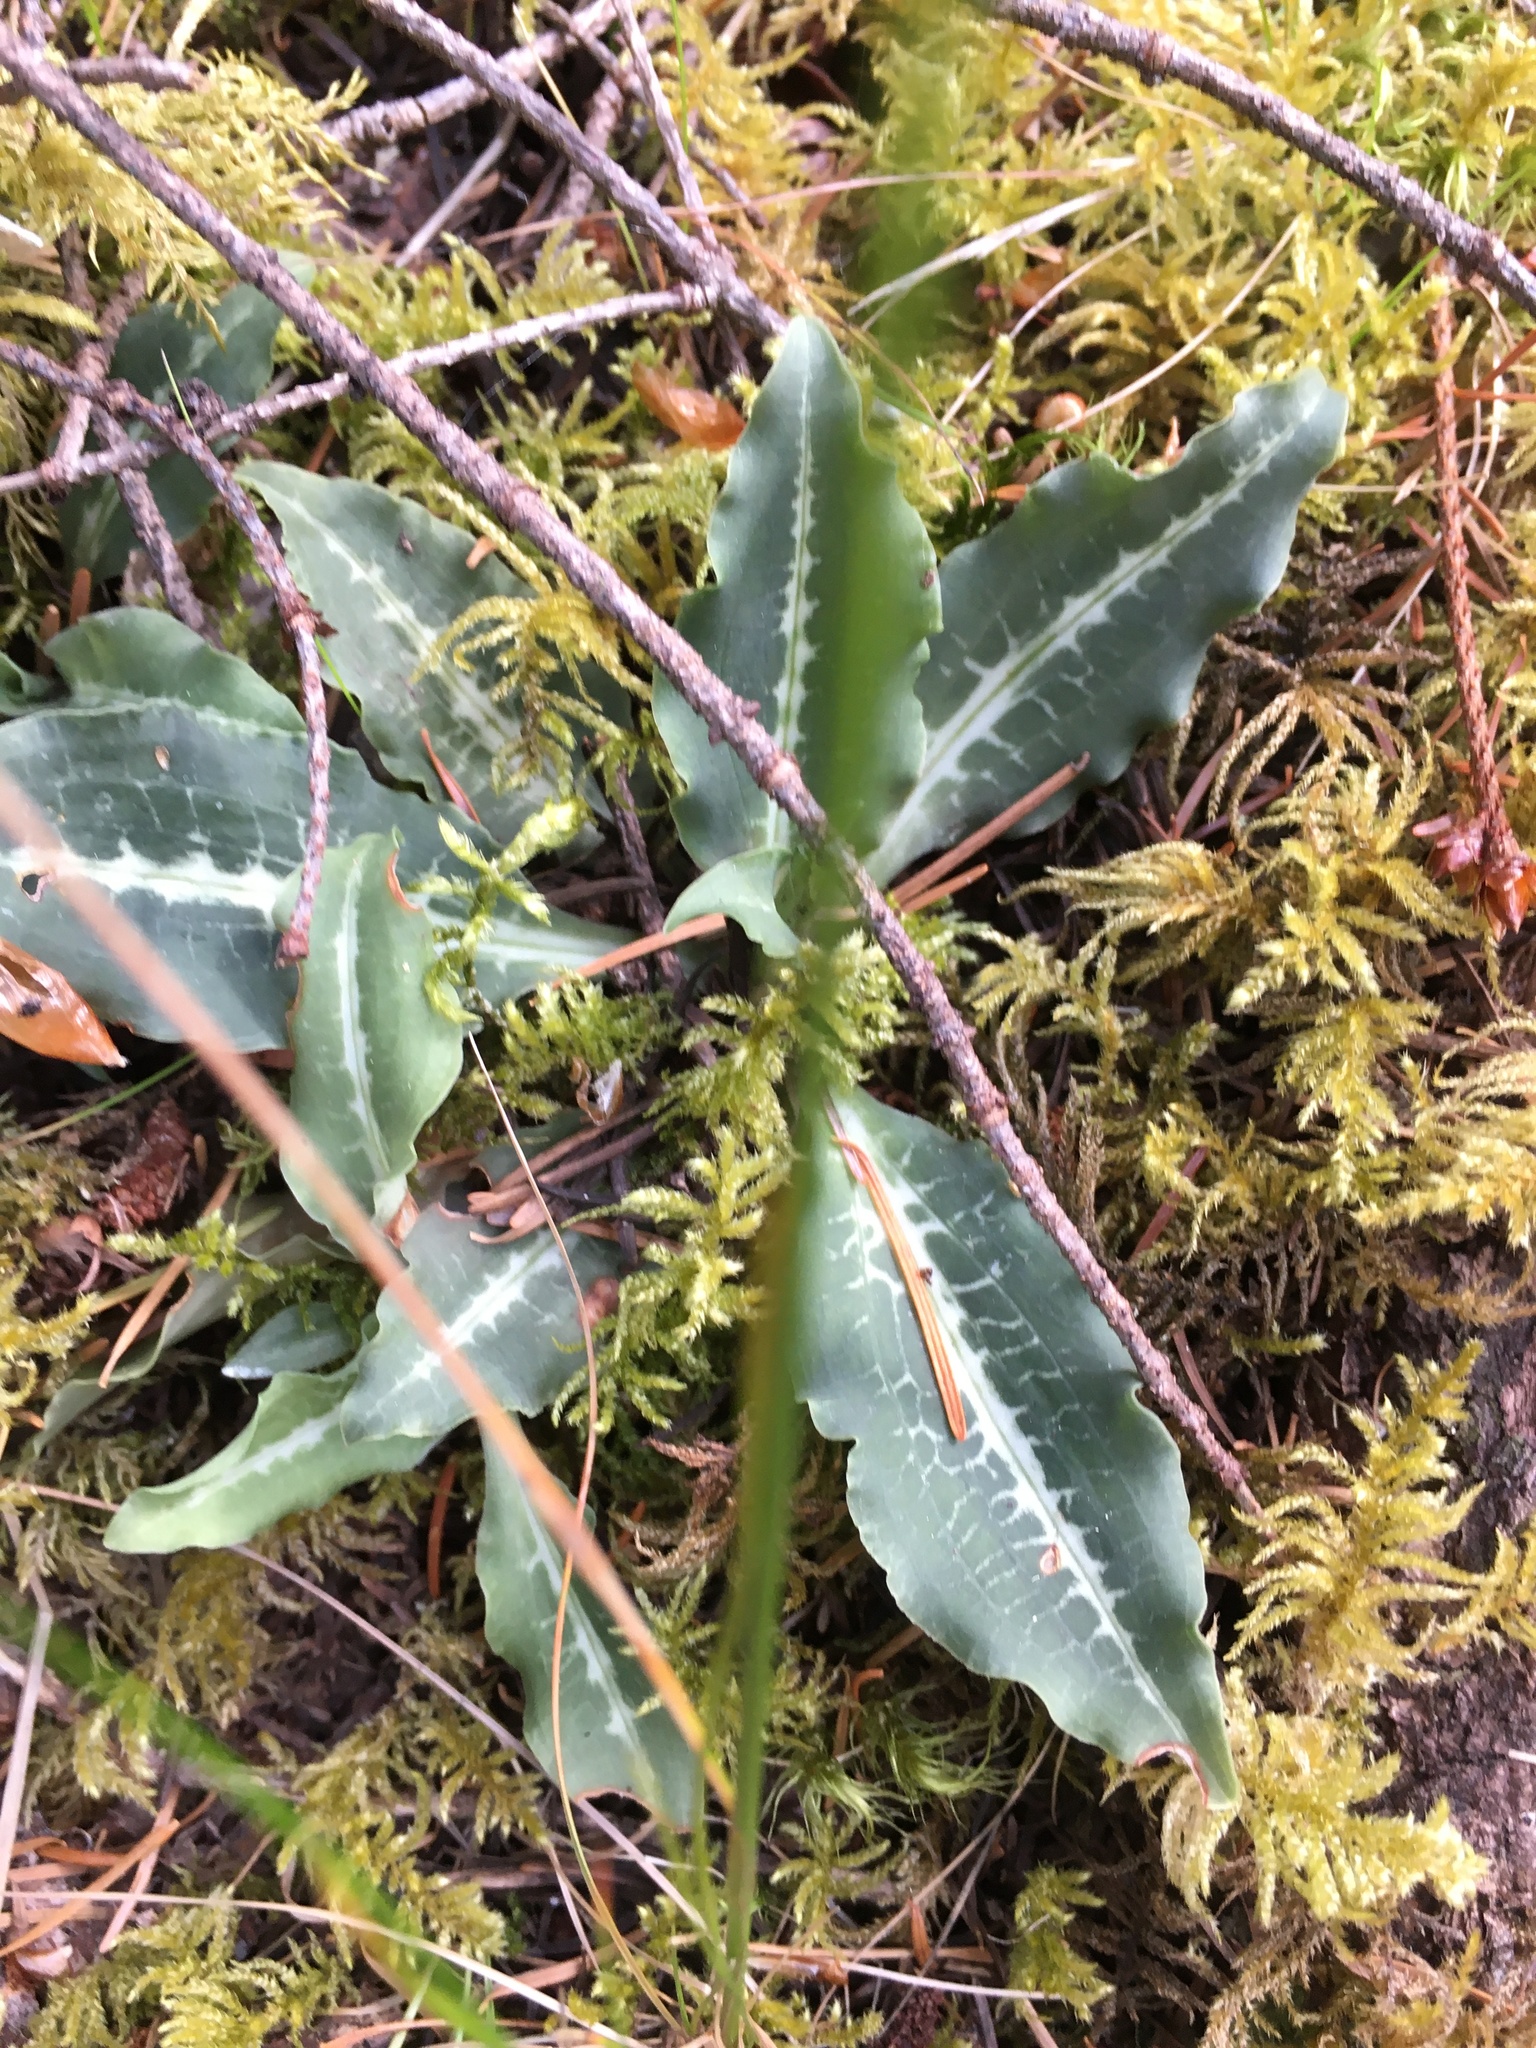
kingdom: Plantae
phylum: Tracheophyta
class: Liliopsida
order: Asparagales
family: Orchidaceae
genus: Goodyera
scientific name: Goodyera oblongifolia
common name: Giant rattlesnake-plantain
